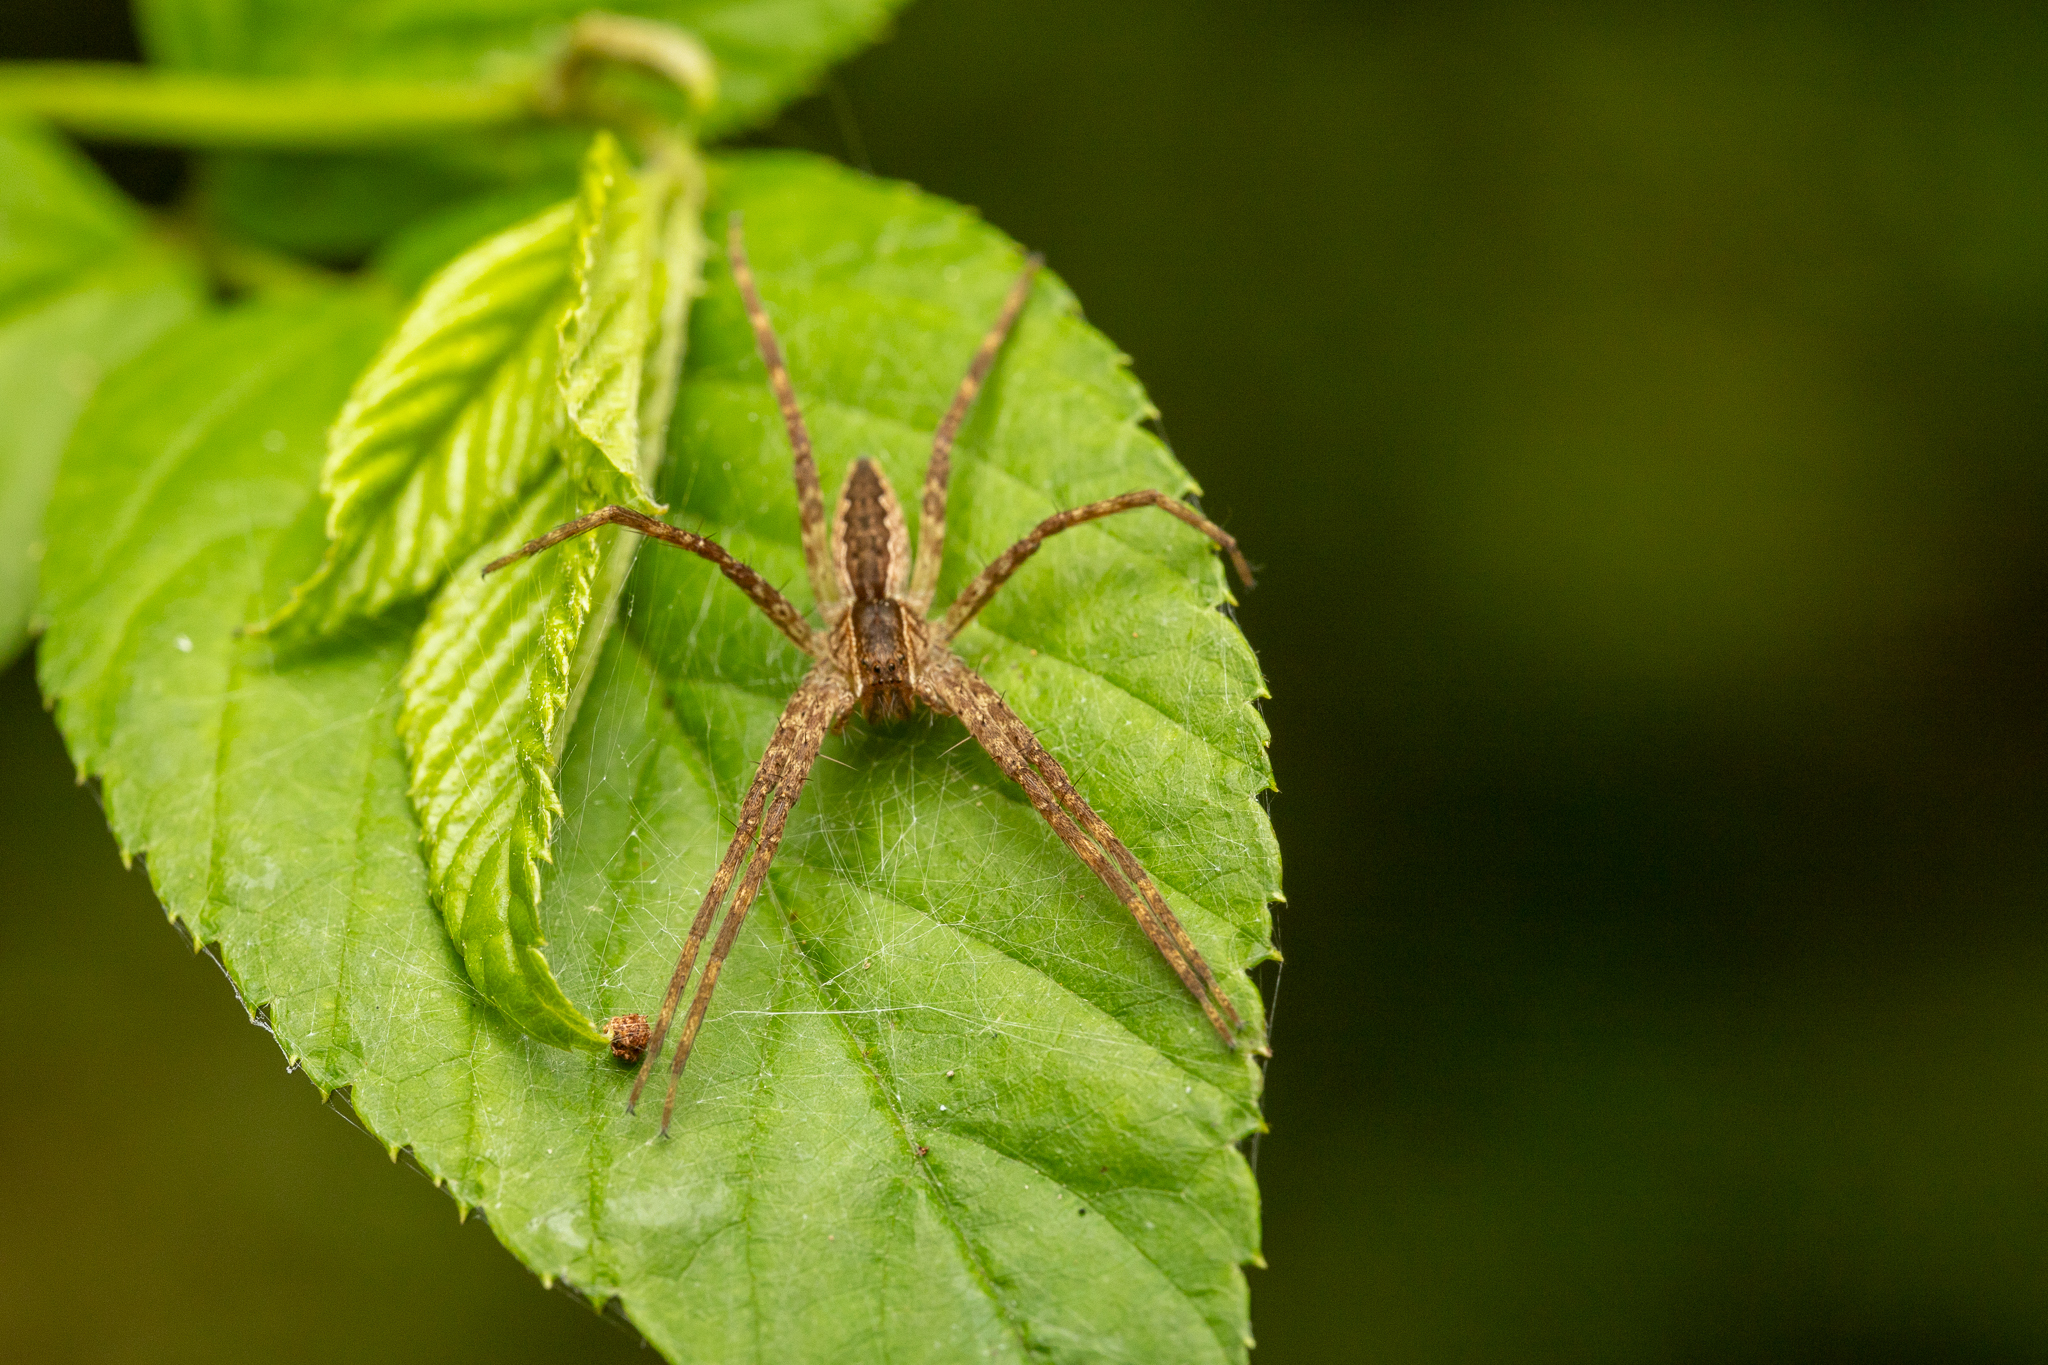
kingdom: Animalia
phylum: Arthropoda
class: Arachnida
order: Araneae
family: Pisauridae
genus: Pisaurina
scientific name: Pisaurina mira
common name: American nursery web spider
